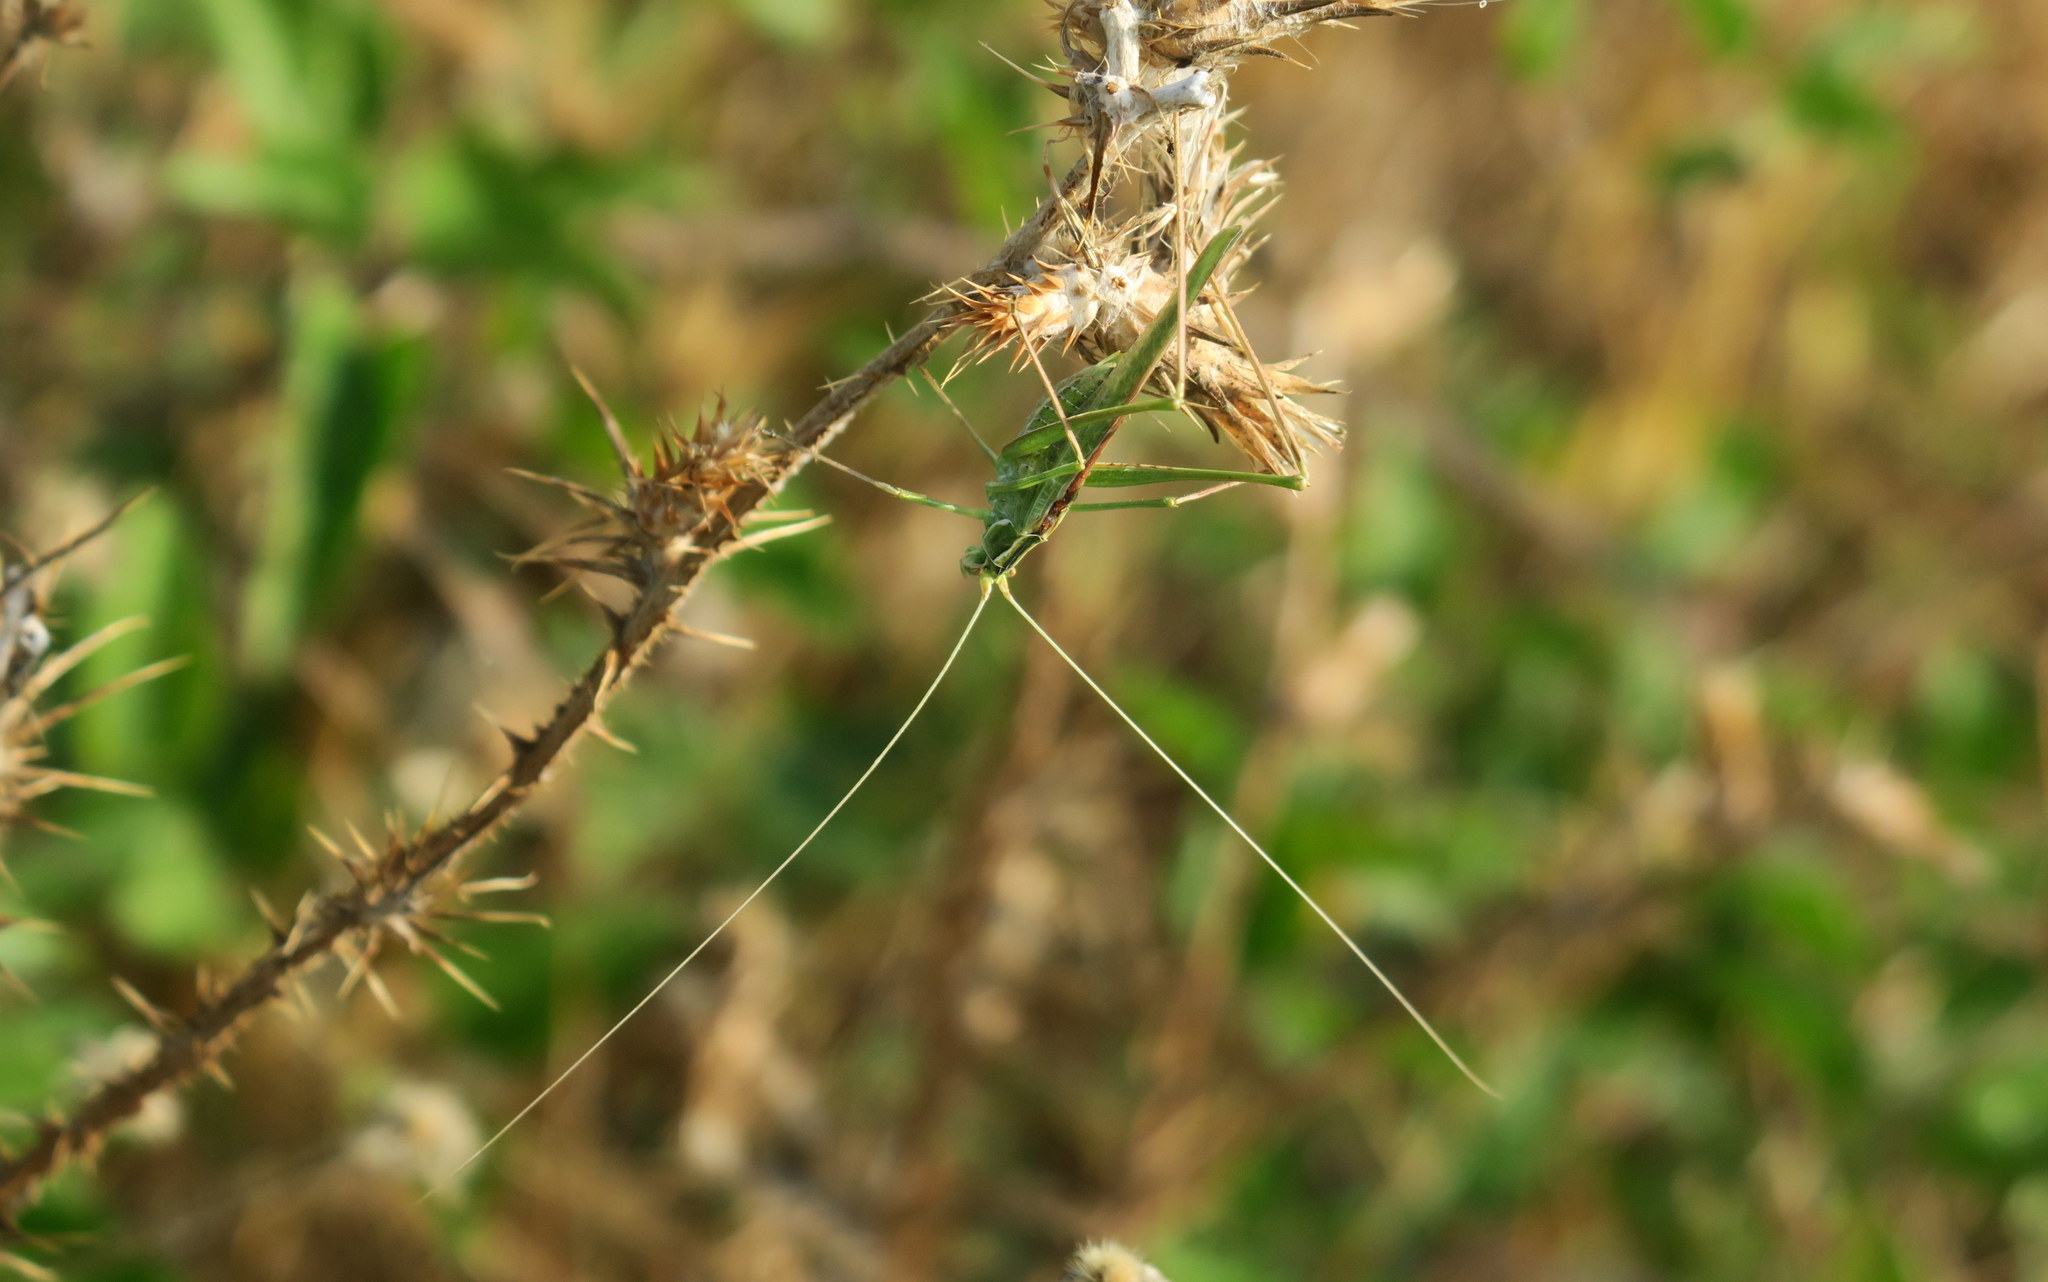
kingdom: Animalia
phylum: Arthropoda
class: Insecta
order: Orthoptera
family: Tettigoniidae
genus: Tylopsis
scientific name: Tylopsis lilifolia
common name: Lily bush-cricket
